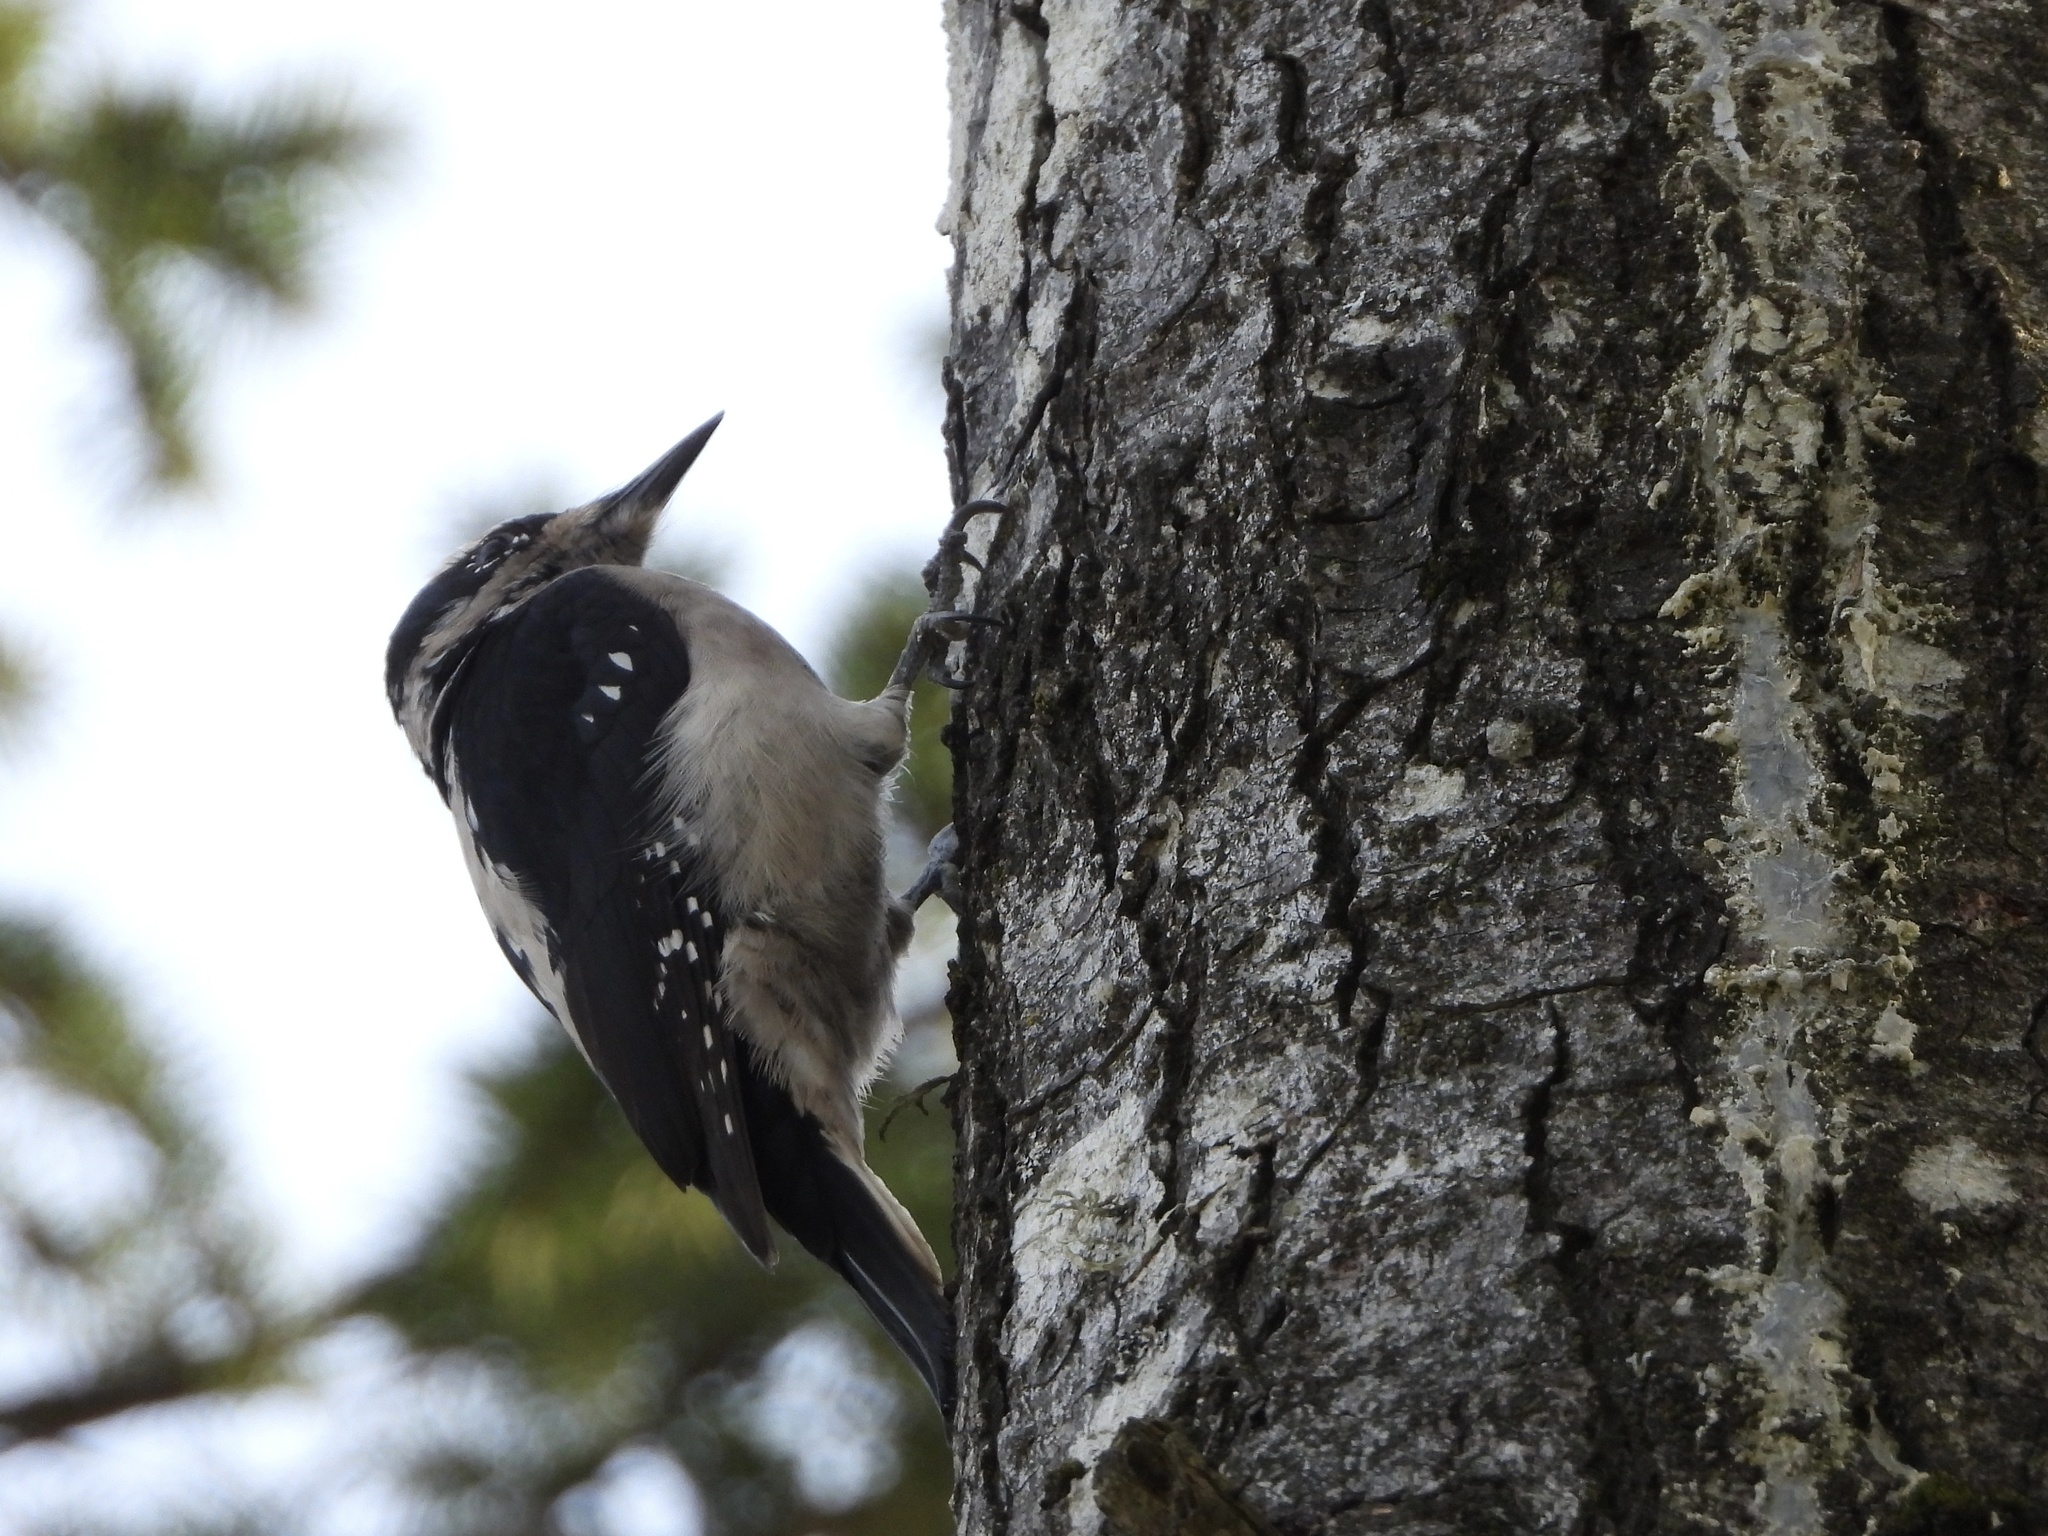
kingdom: Animalia
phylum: Chordata
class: Aves
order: Piciformes
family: Picidae
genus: Leuconotopicus
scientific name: Leuconotopicus villosus
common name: Hairy woodpecker
